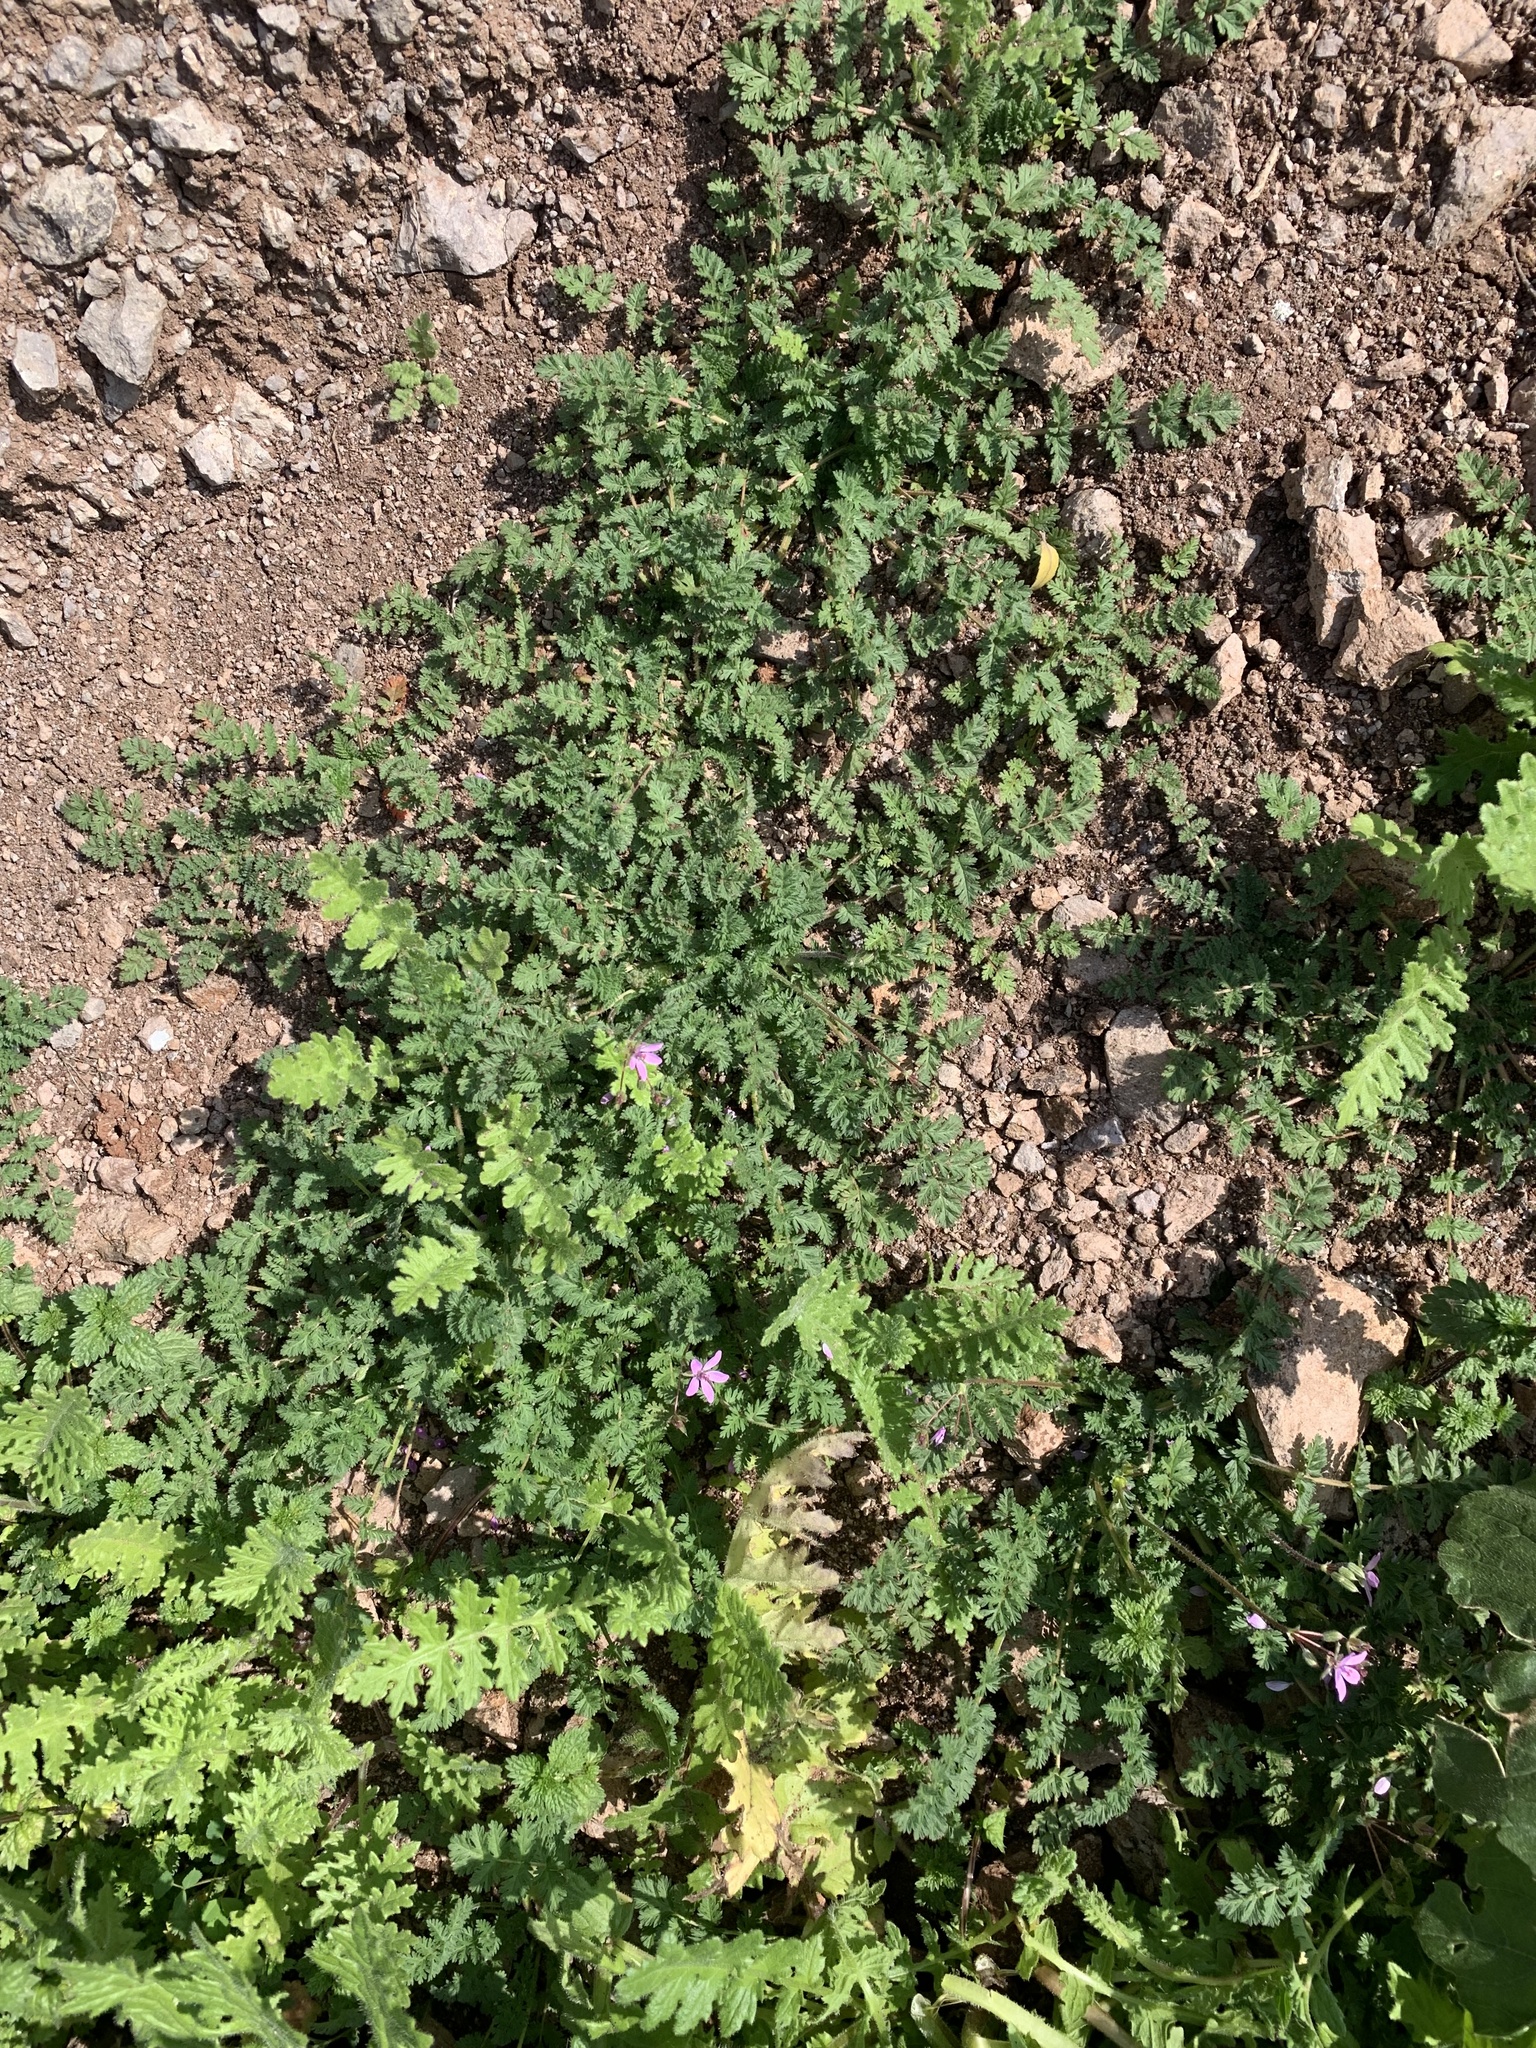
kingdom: Plantae
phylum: Tracheophyta
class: Magnoliopsida
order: Geraniales
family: Geraniaceae
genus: Erodium
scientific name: Erodium cicutarium
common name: Common stork's-bill
